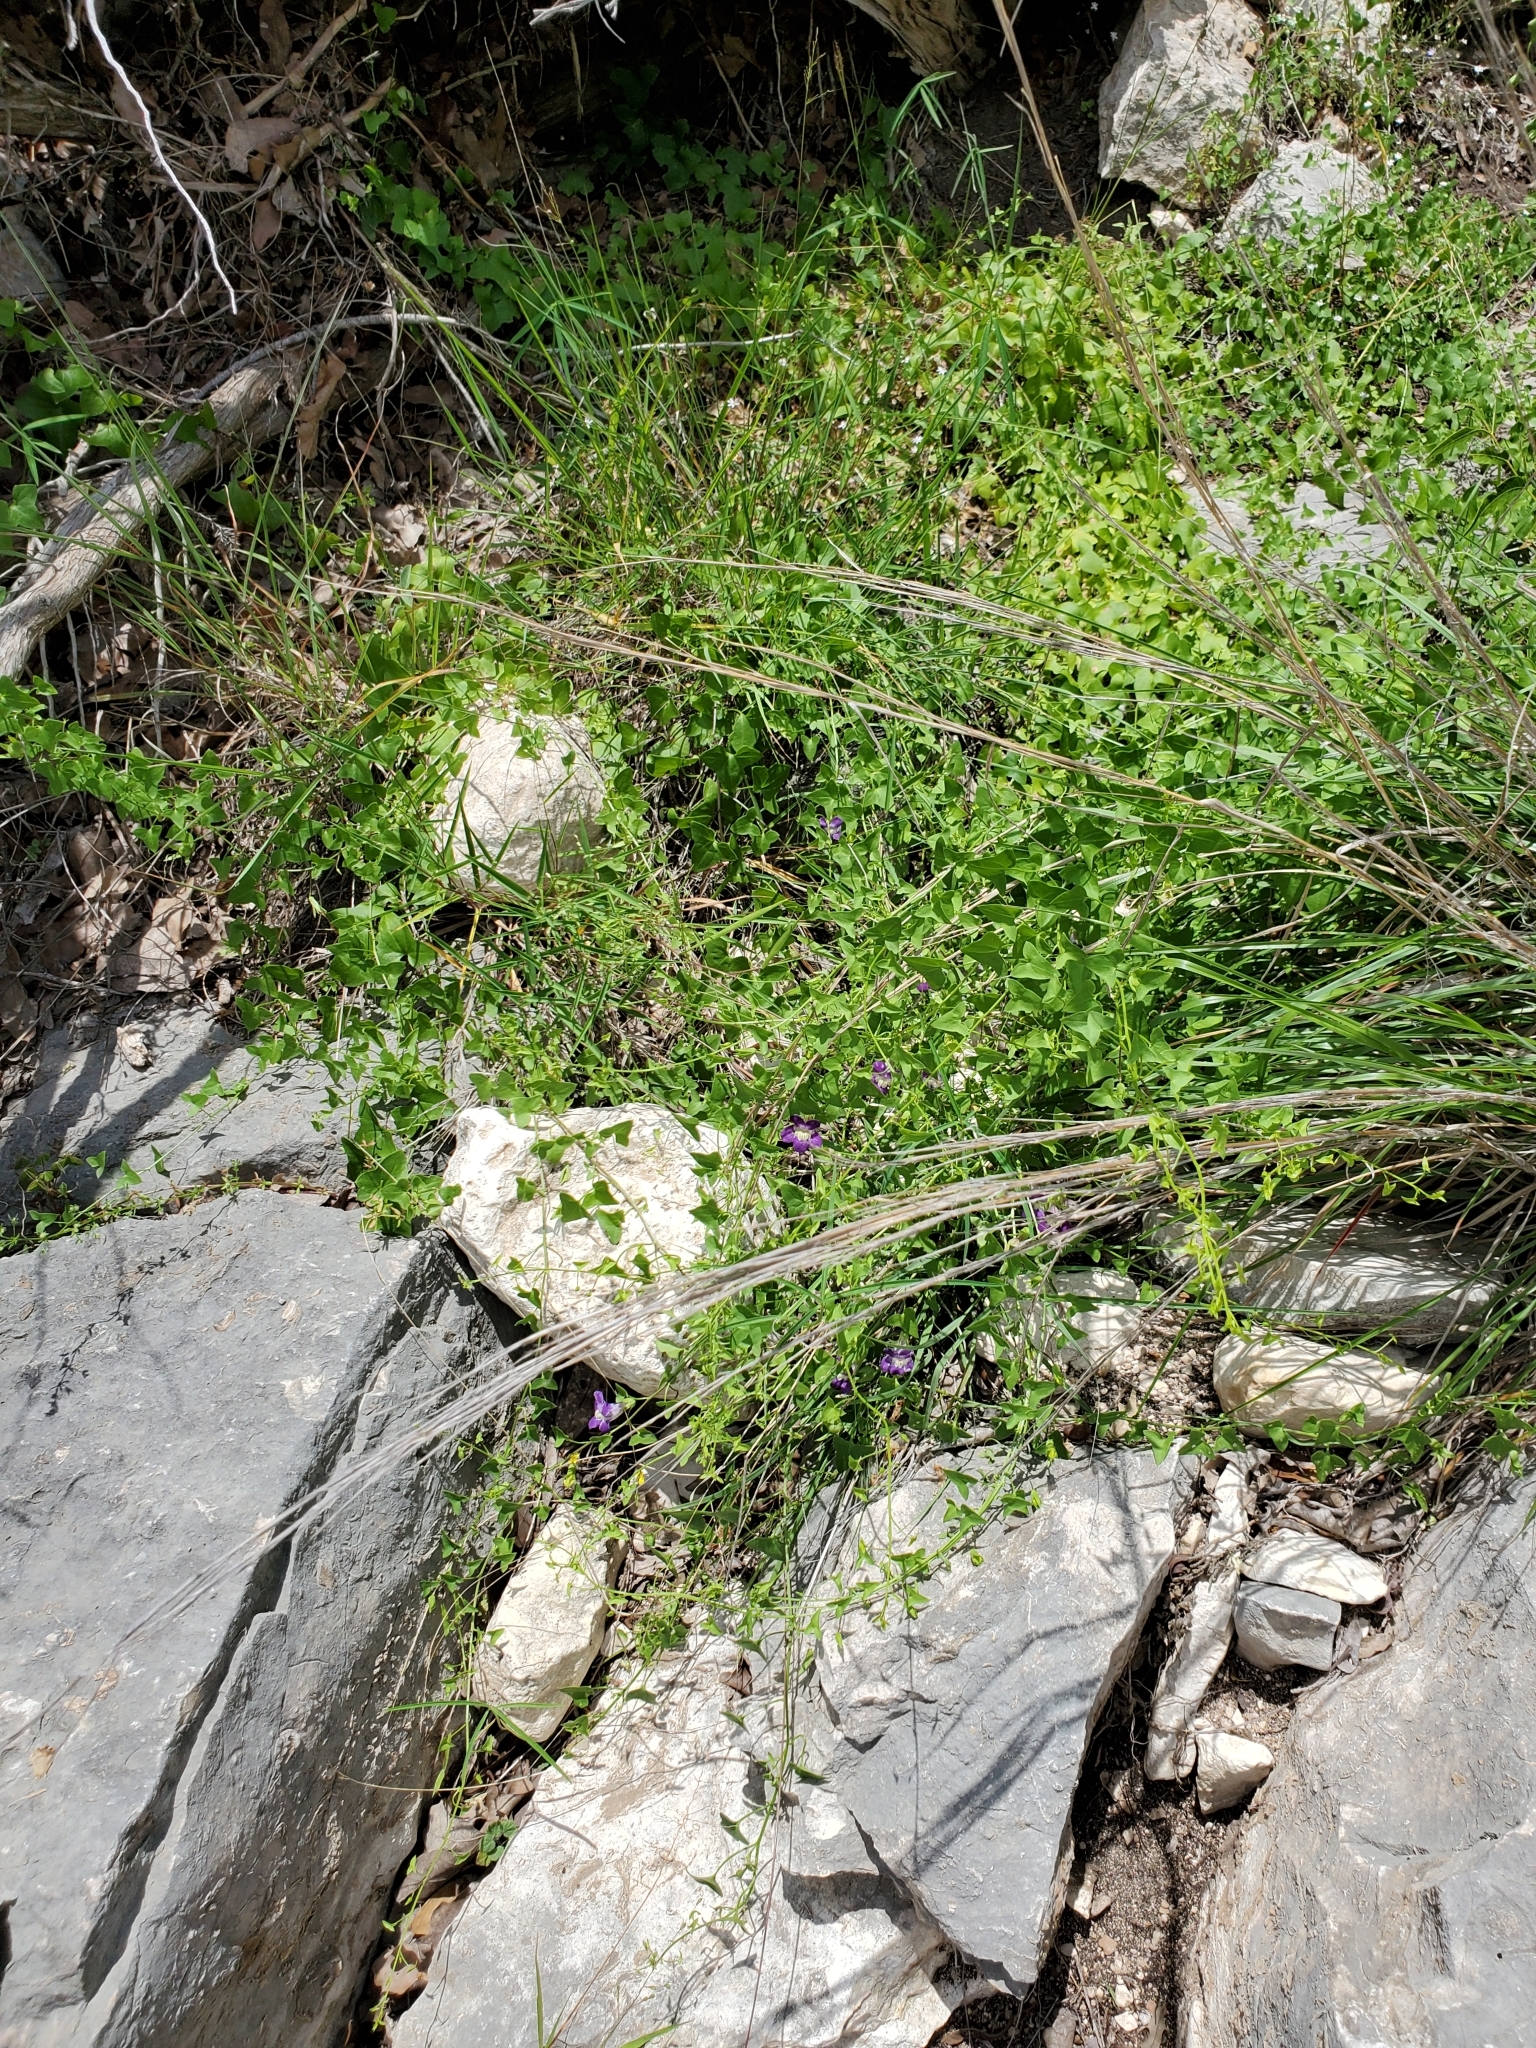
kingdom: Plantae
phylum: Tracheophyta
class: Magnoliopsida
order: Lamiales
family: Plantaginaceae
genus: Maurandella
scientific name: Maurandella antirrhiniflora
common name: Violet twining-snapdragon
